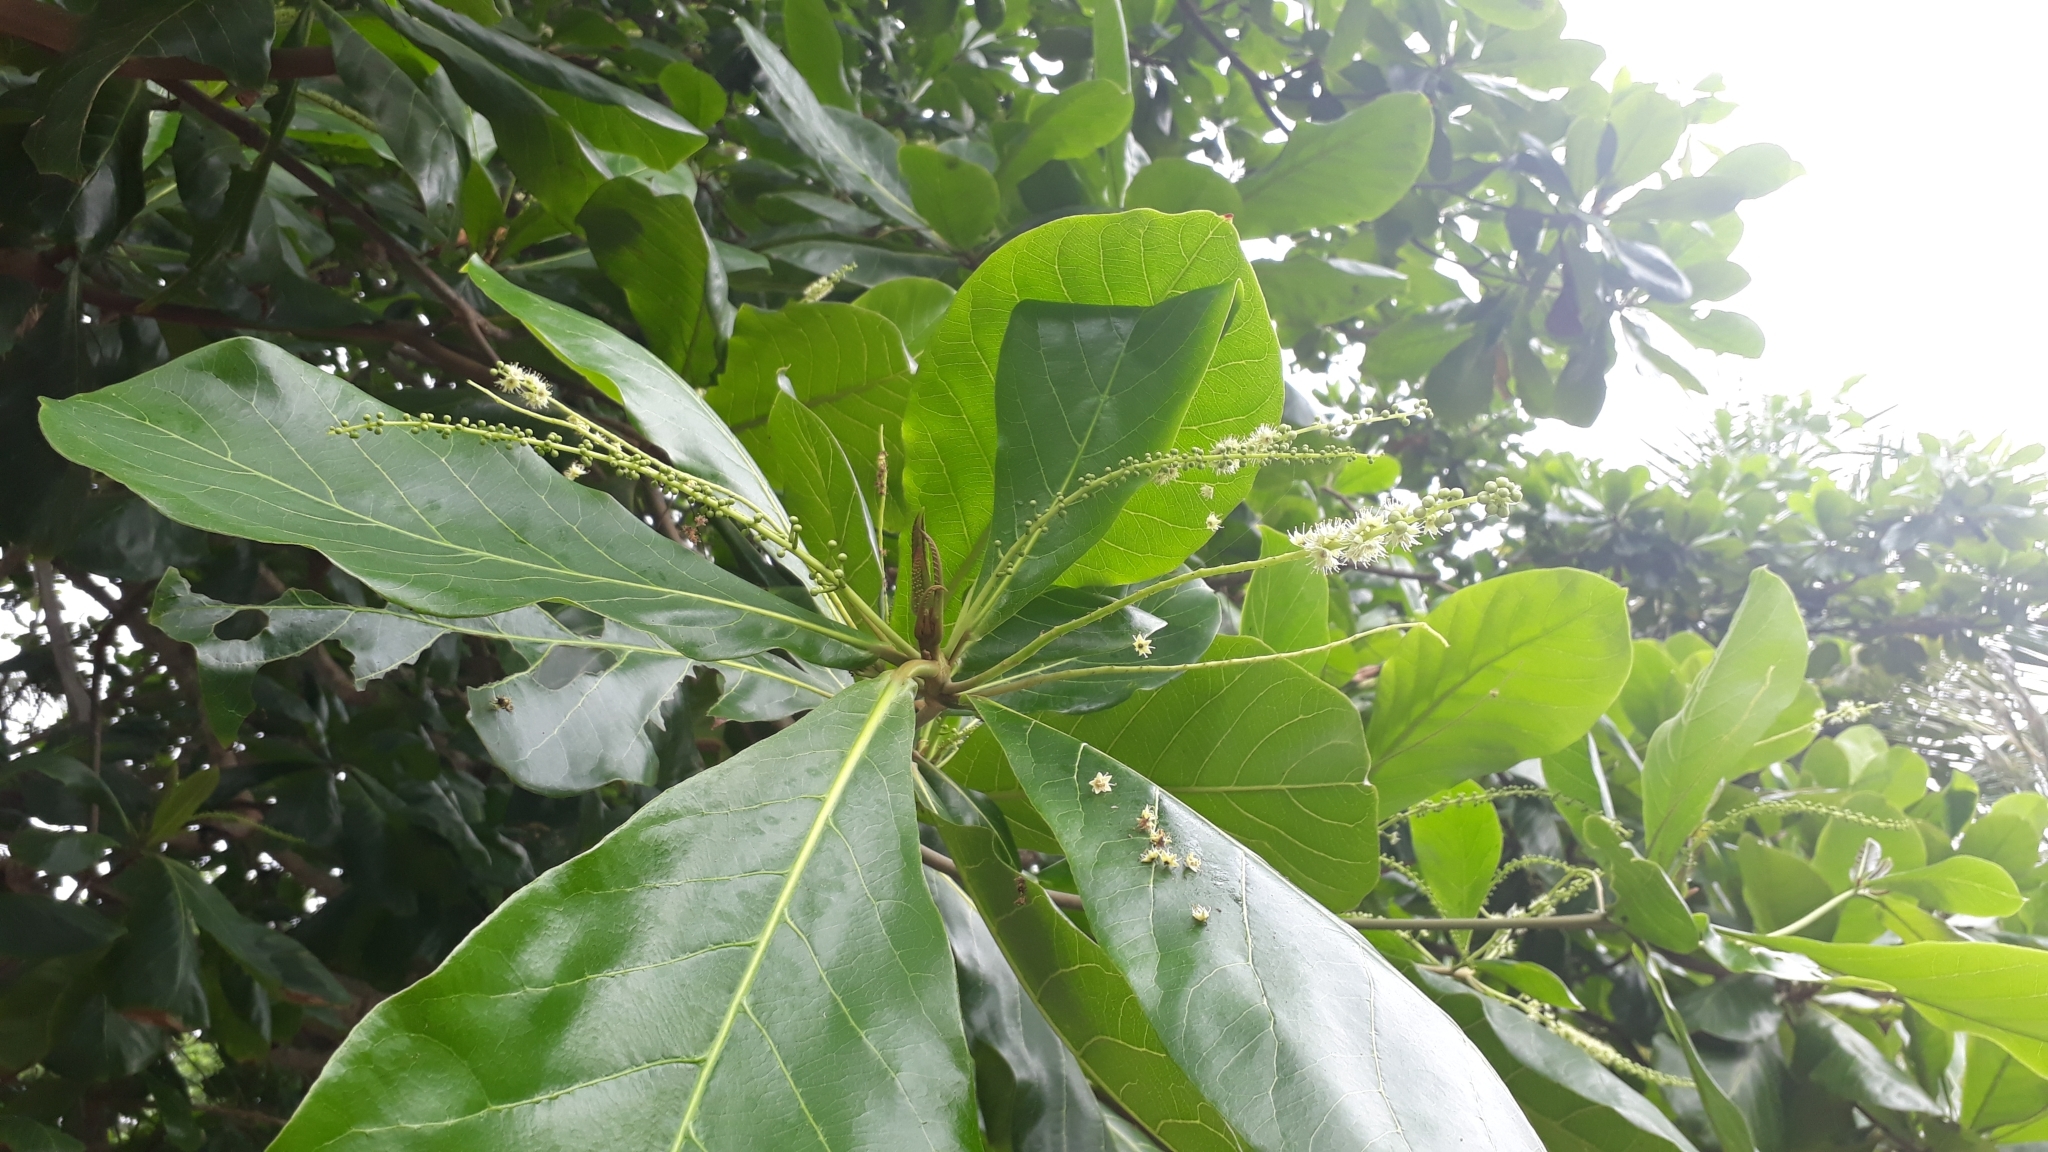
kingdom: Plantae
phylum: Tracheophyta
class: Magnoliopsida
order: Myrtales
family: Combretaceae
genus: Terminalia
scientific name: Terminalia catappa
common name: Tropical almond
